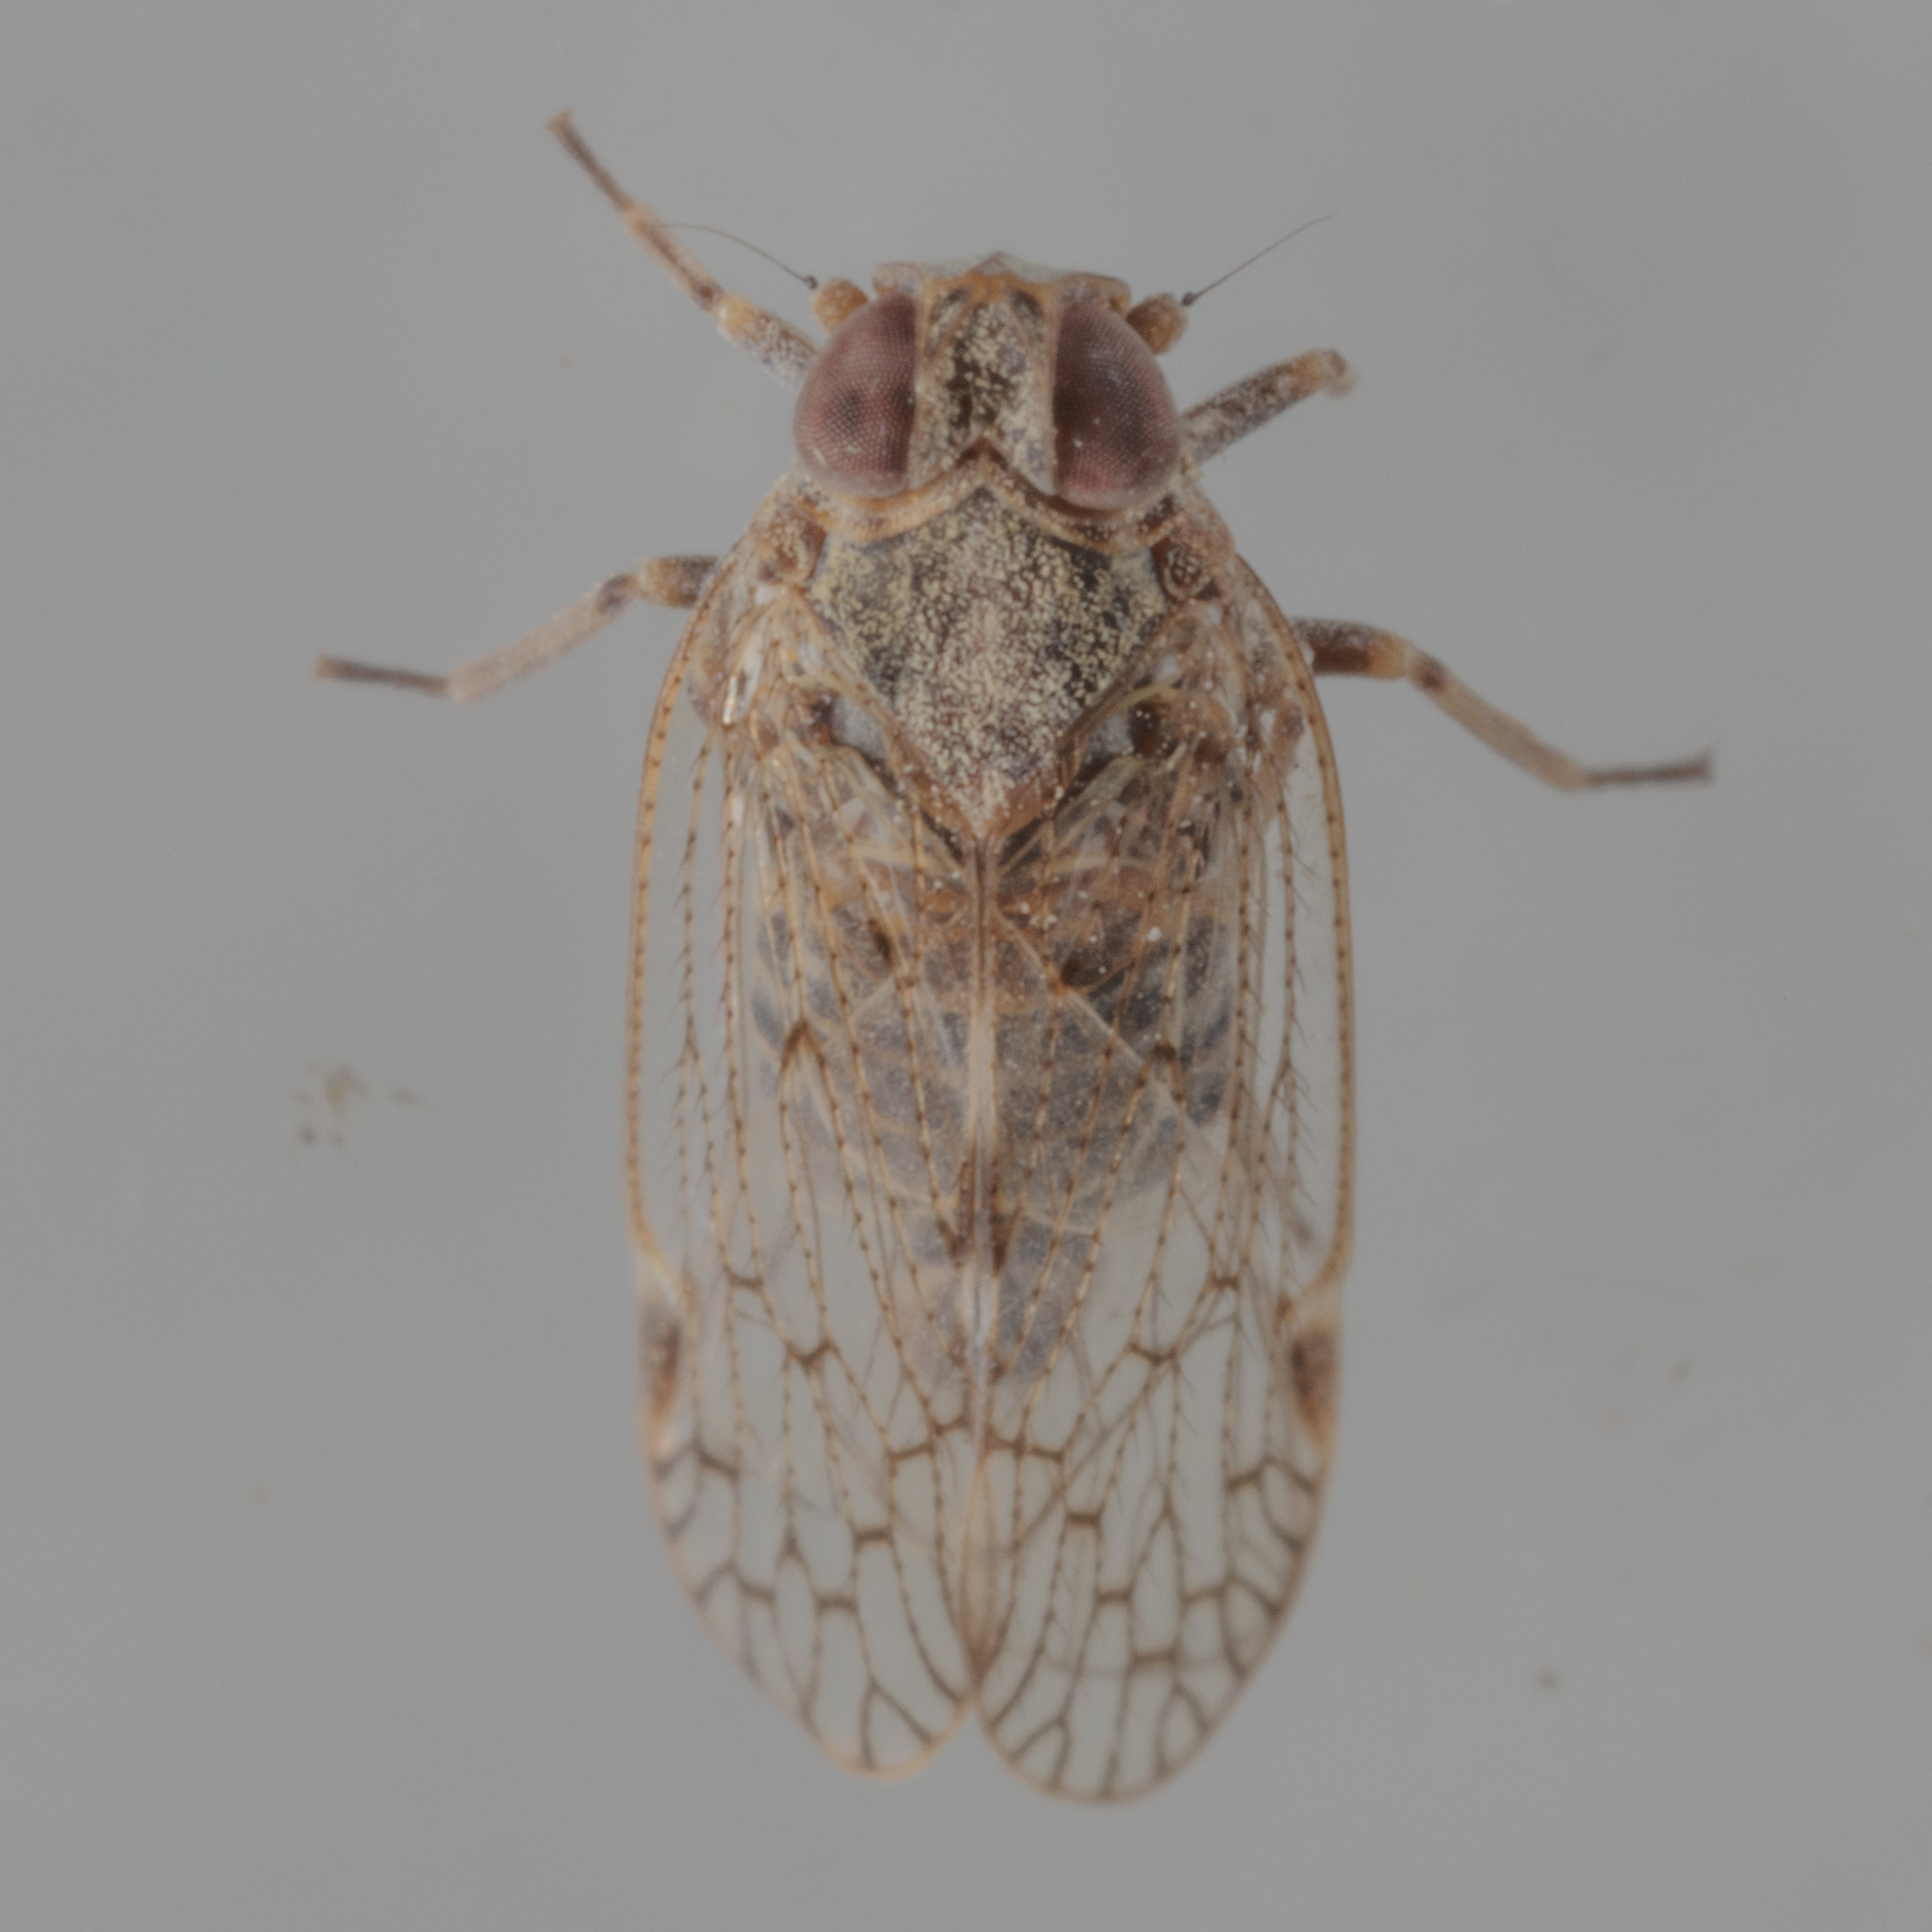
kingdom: Animalia
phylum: Arthropoda
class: Insecta
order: Hemiptera
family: Cixiidae
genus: Melanoliarus
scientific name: Melanoliarus texanus
